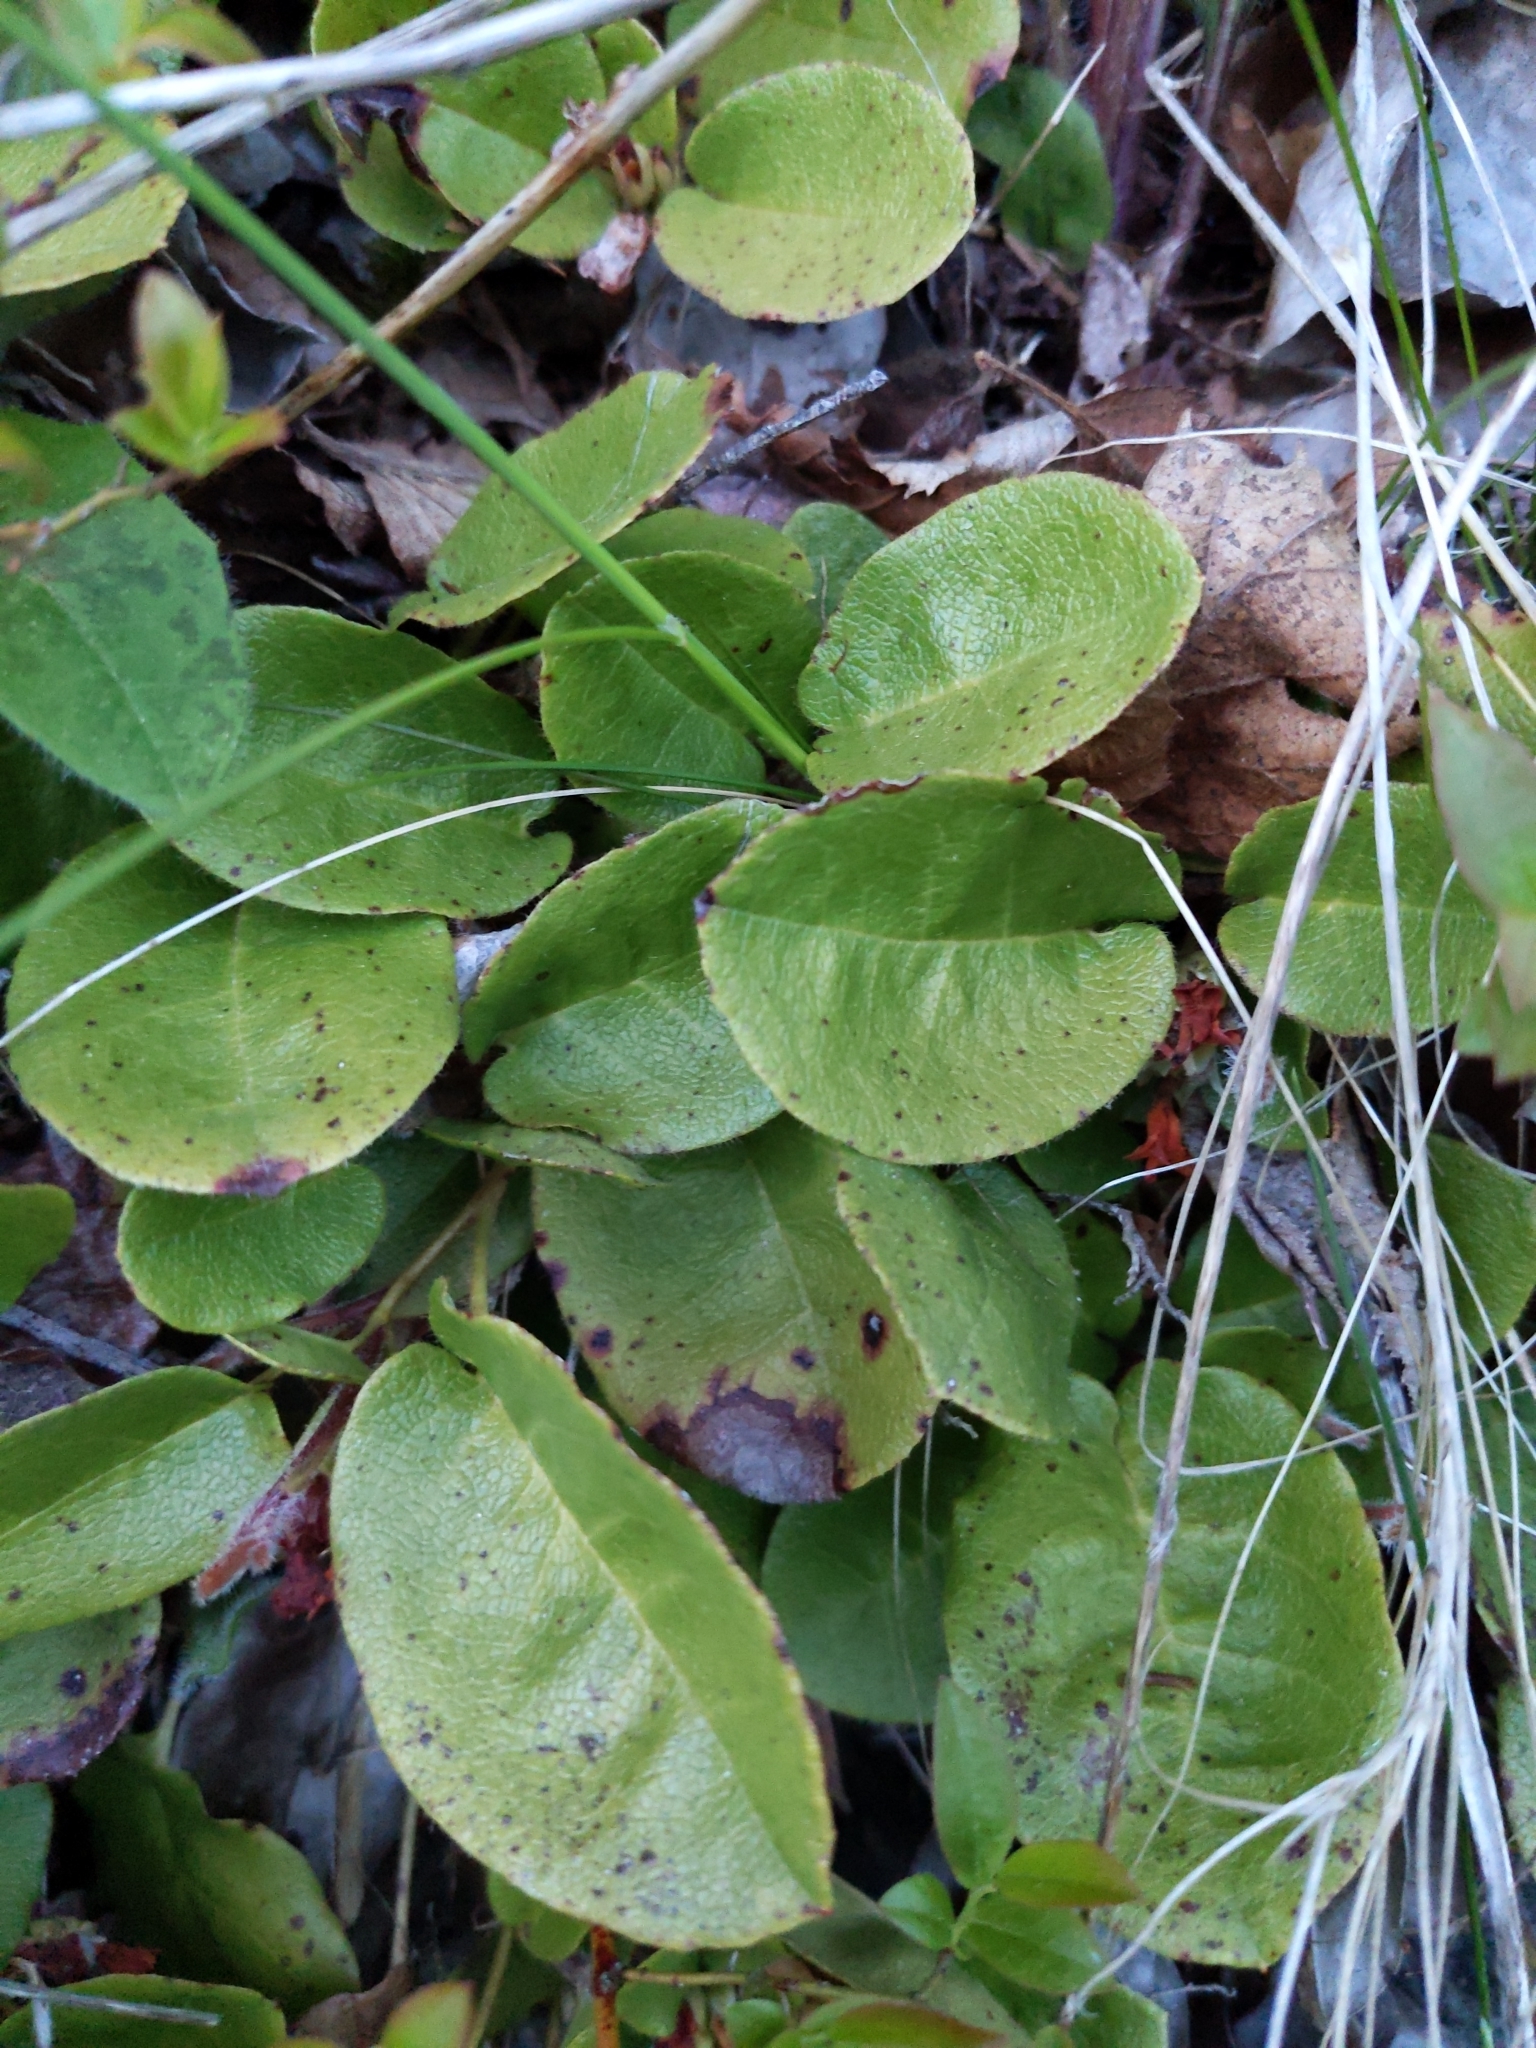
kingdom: Plantae
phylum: Tracheophyta
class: Magnoliopsida
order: Ericales
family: Ericaceae
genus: Epigaea
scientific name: Epigaea repens
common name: Gravelroot
